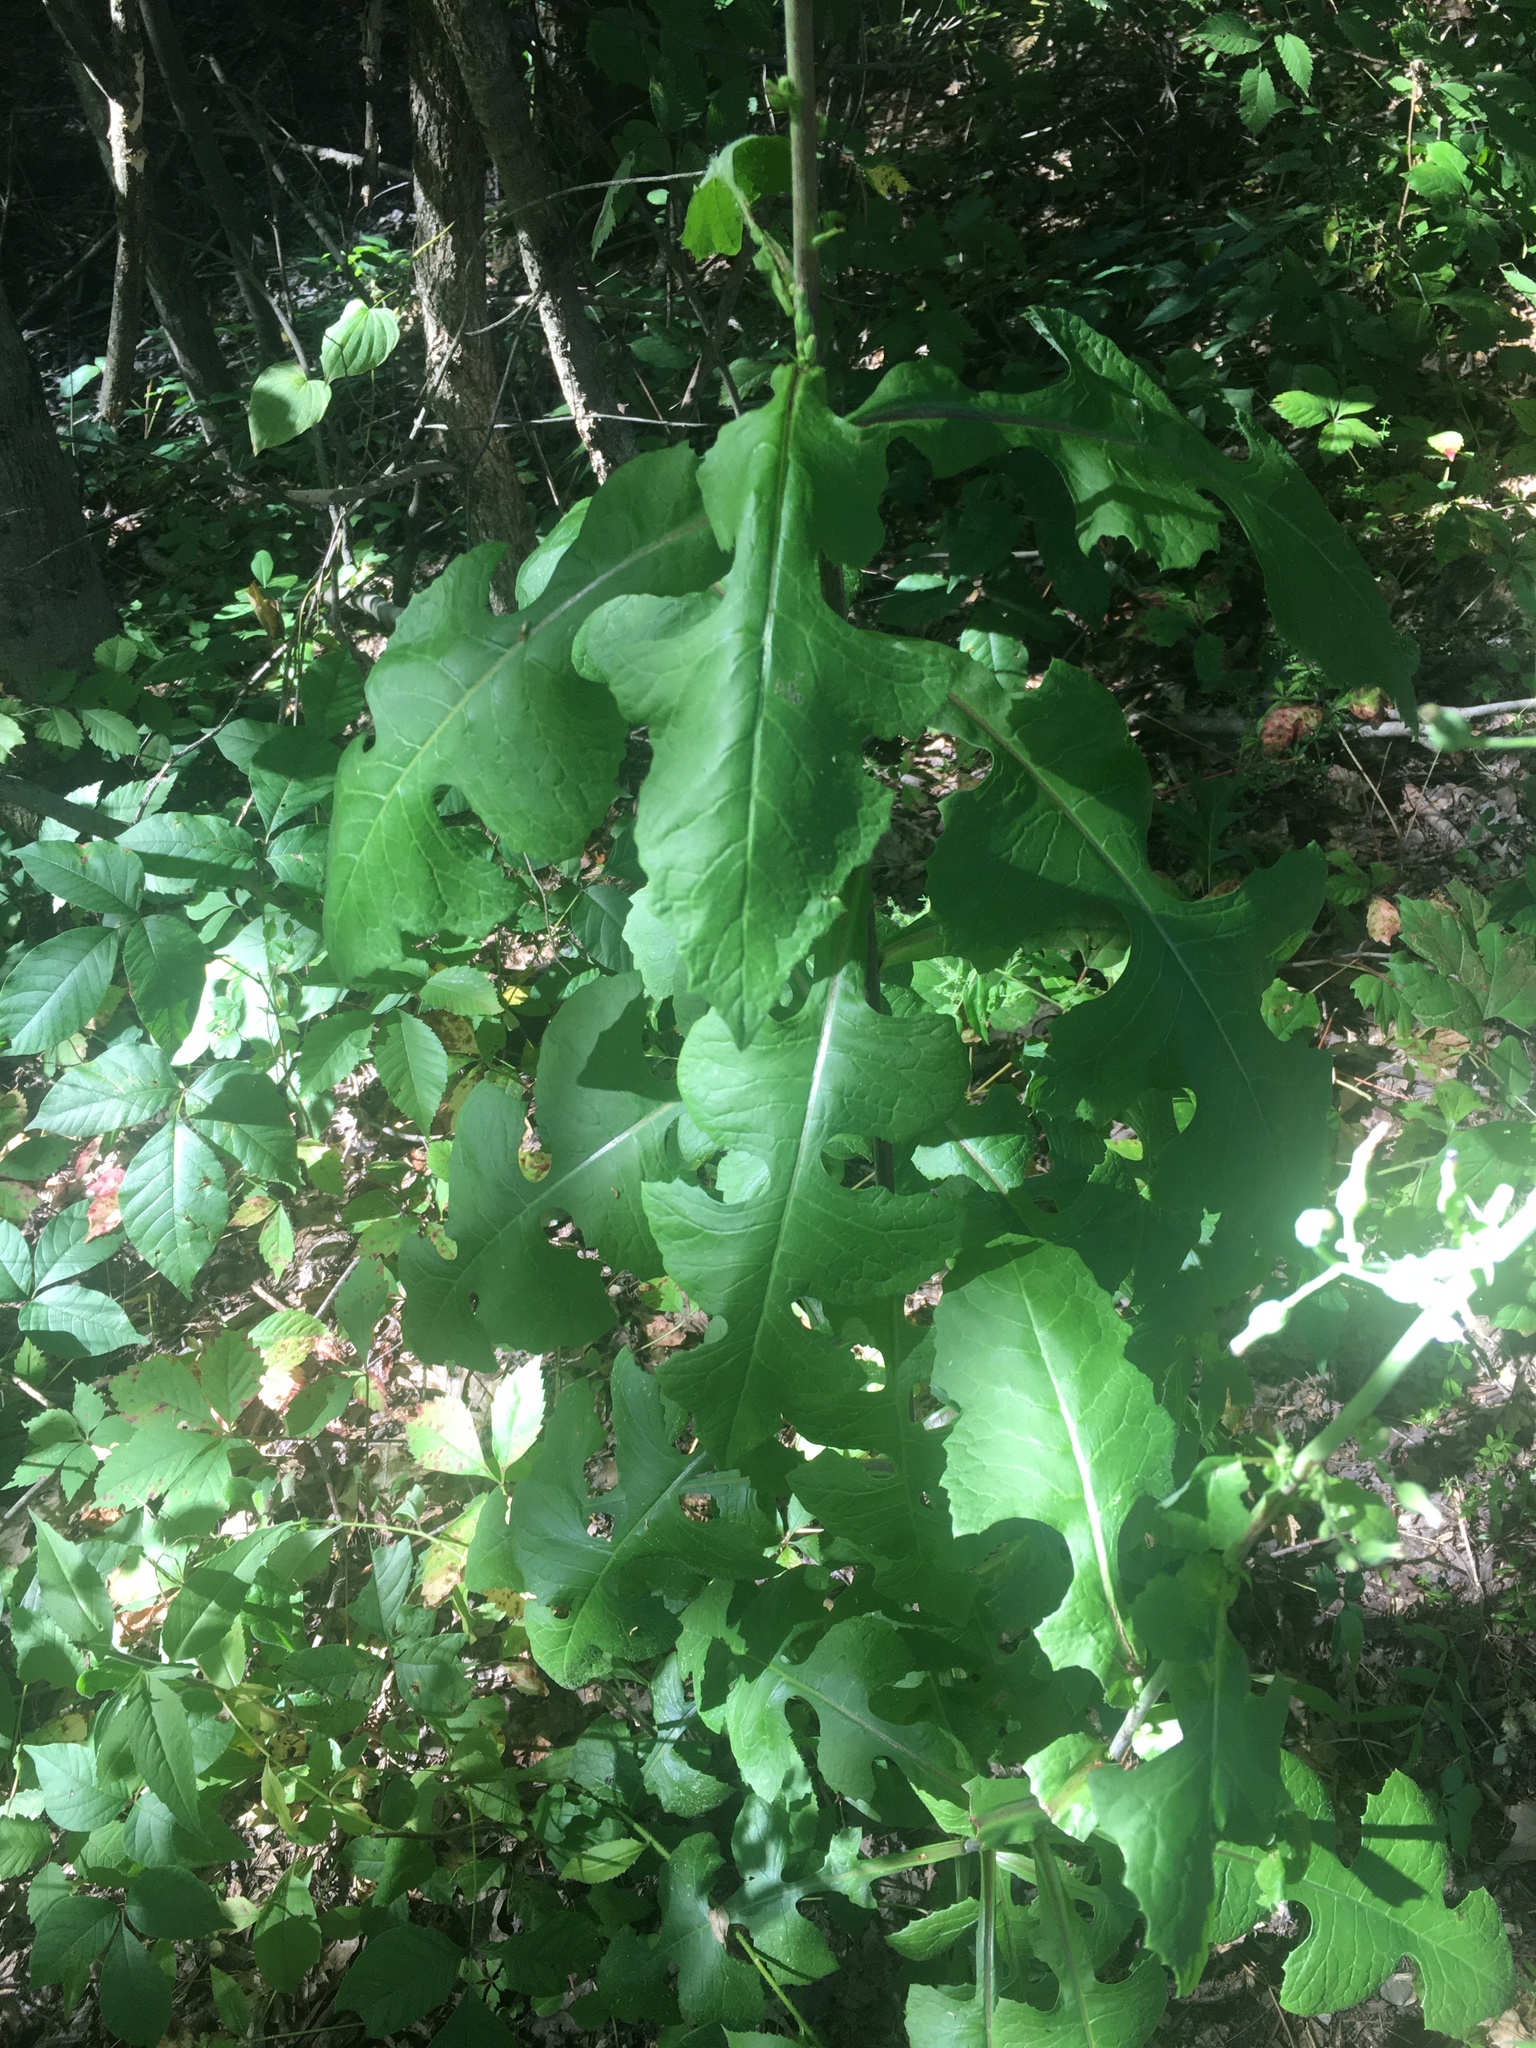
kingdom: Plantae
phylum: Tracheophyta
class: Magnoliopsida
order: Asterales
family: Asteraceae
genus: Lactuca
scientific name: Lactuca biennis
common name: Blue wood lettuce
